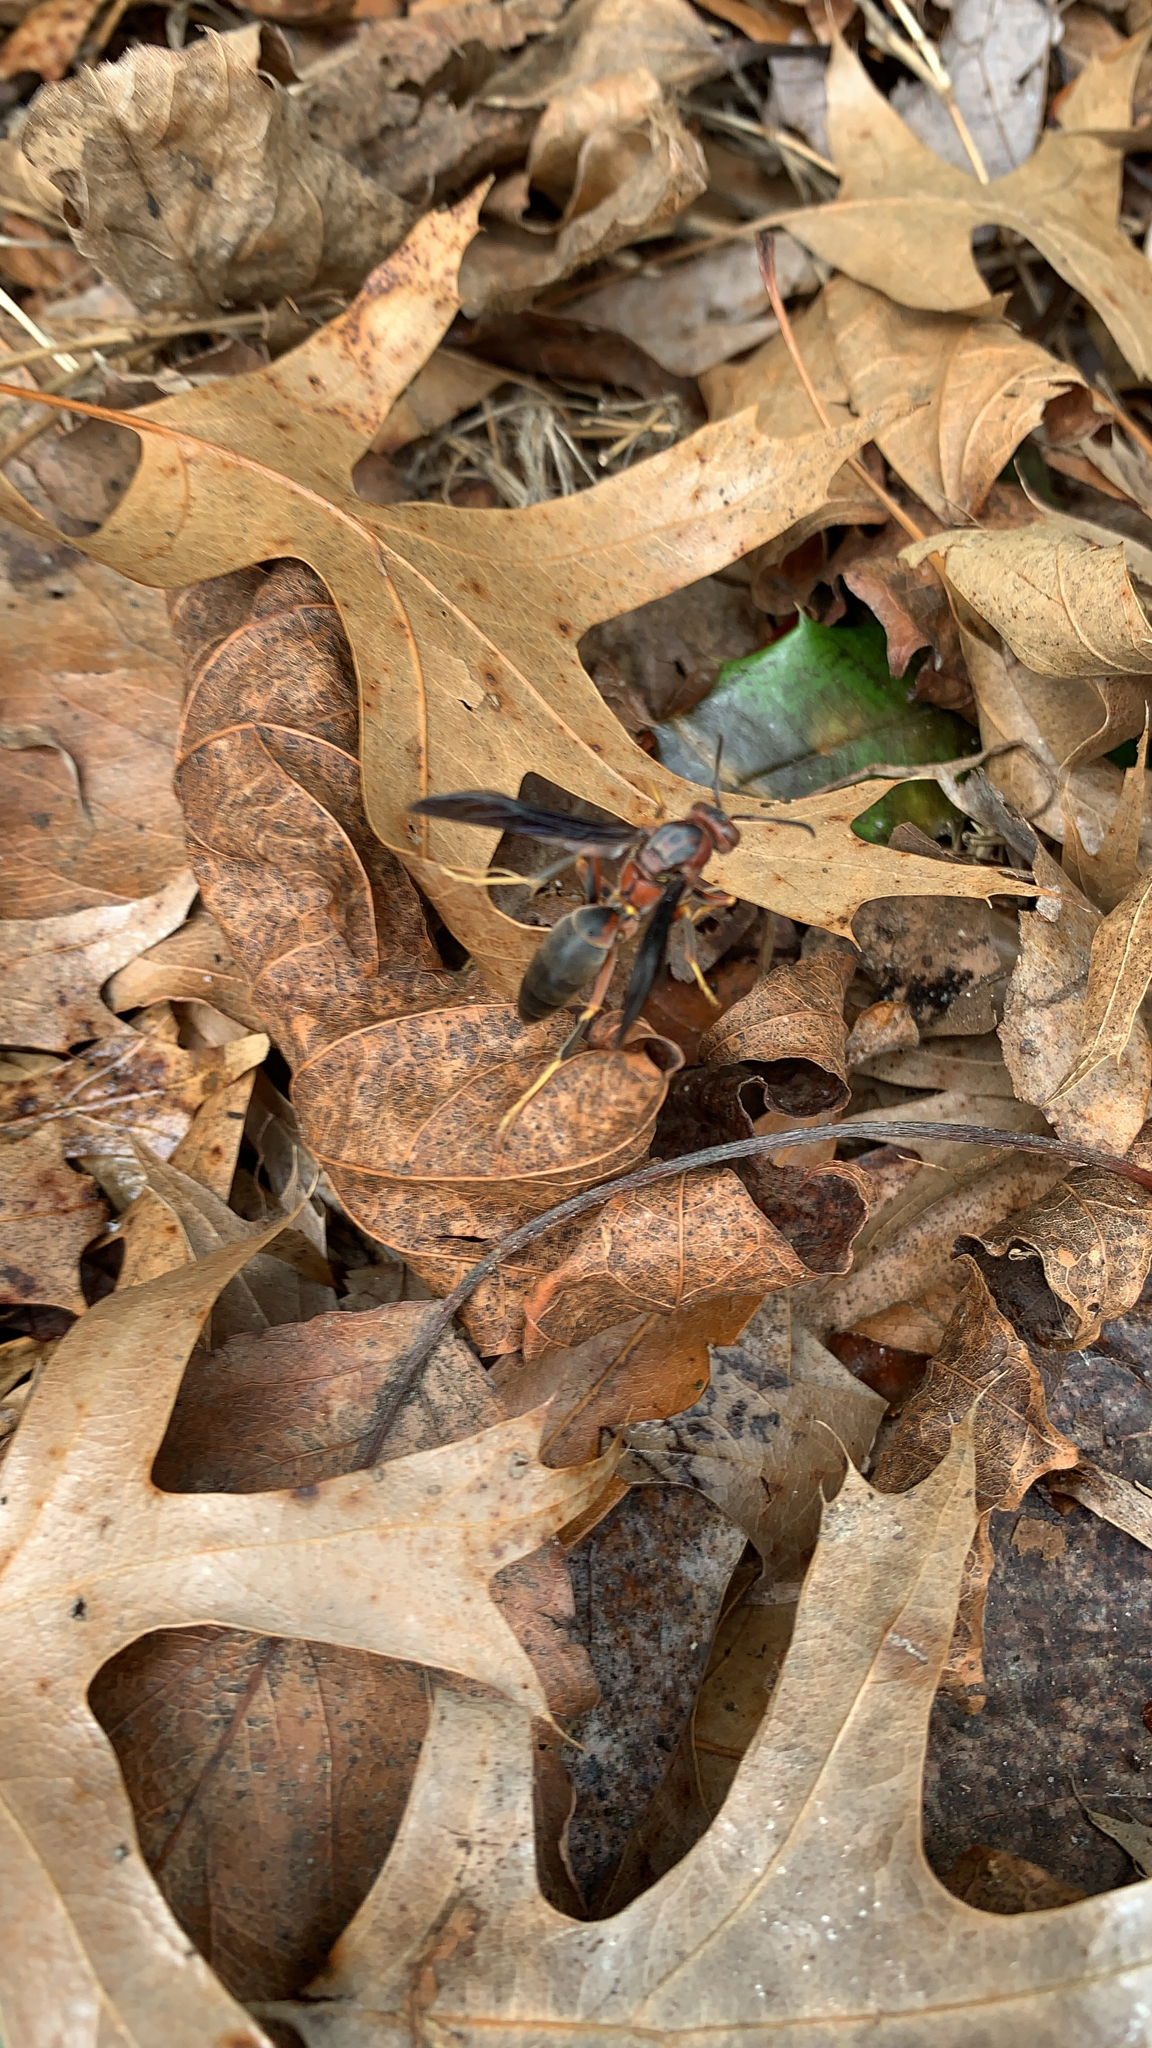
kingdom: Animalia
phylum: Arthropoda
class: Insecta
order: Hymenoptera
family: Eumenidae
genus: Polistes
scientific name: Polistes metricus
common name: Metric paper wasp
